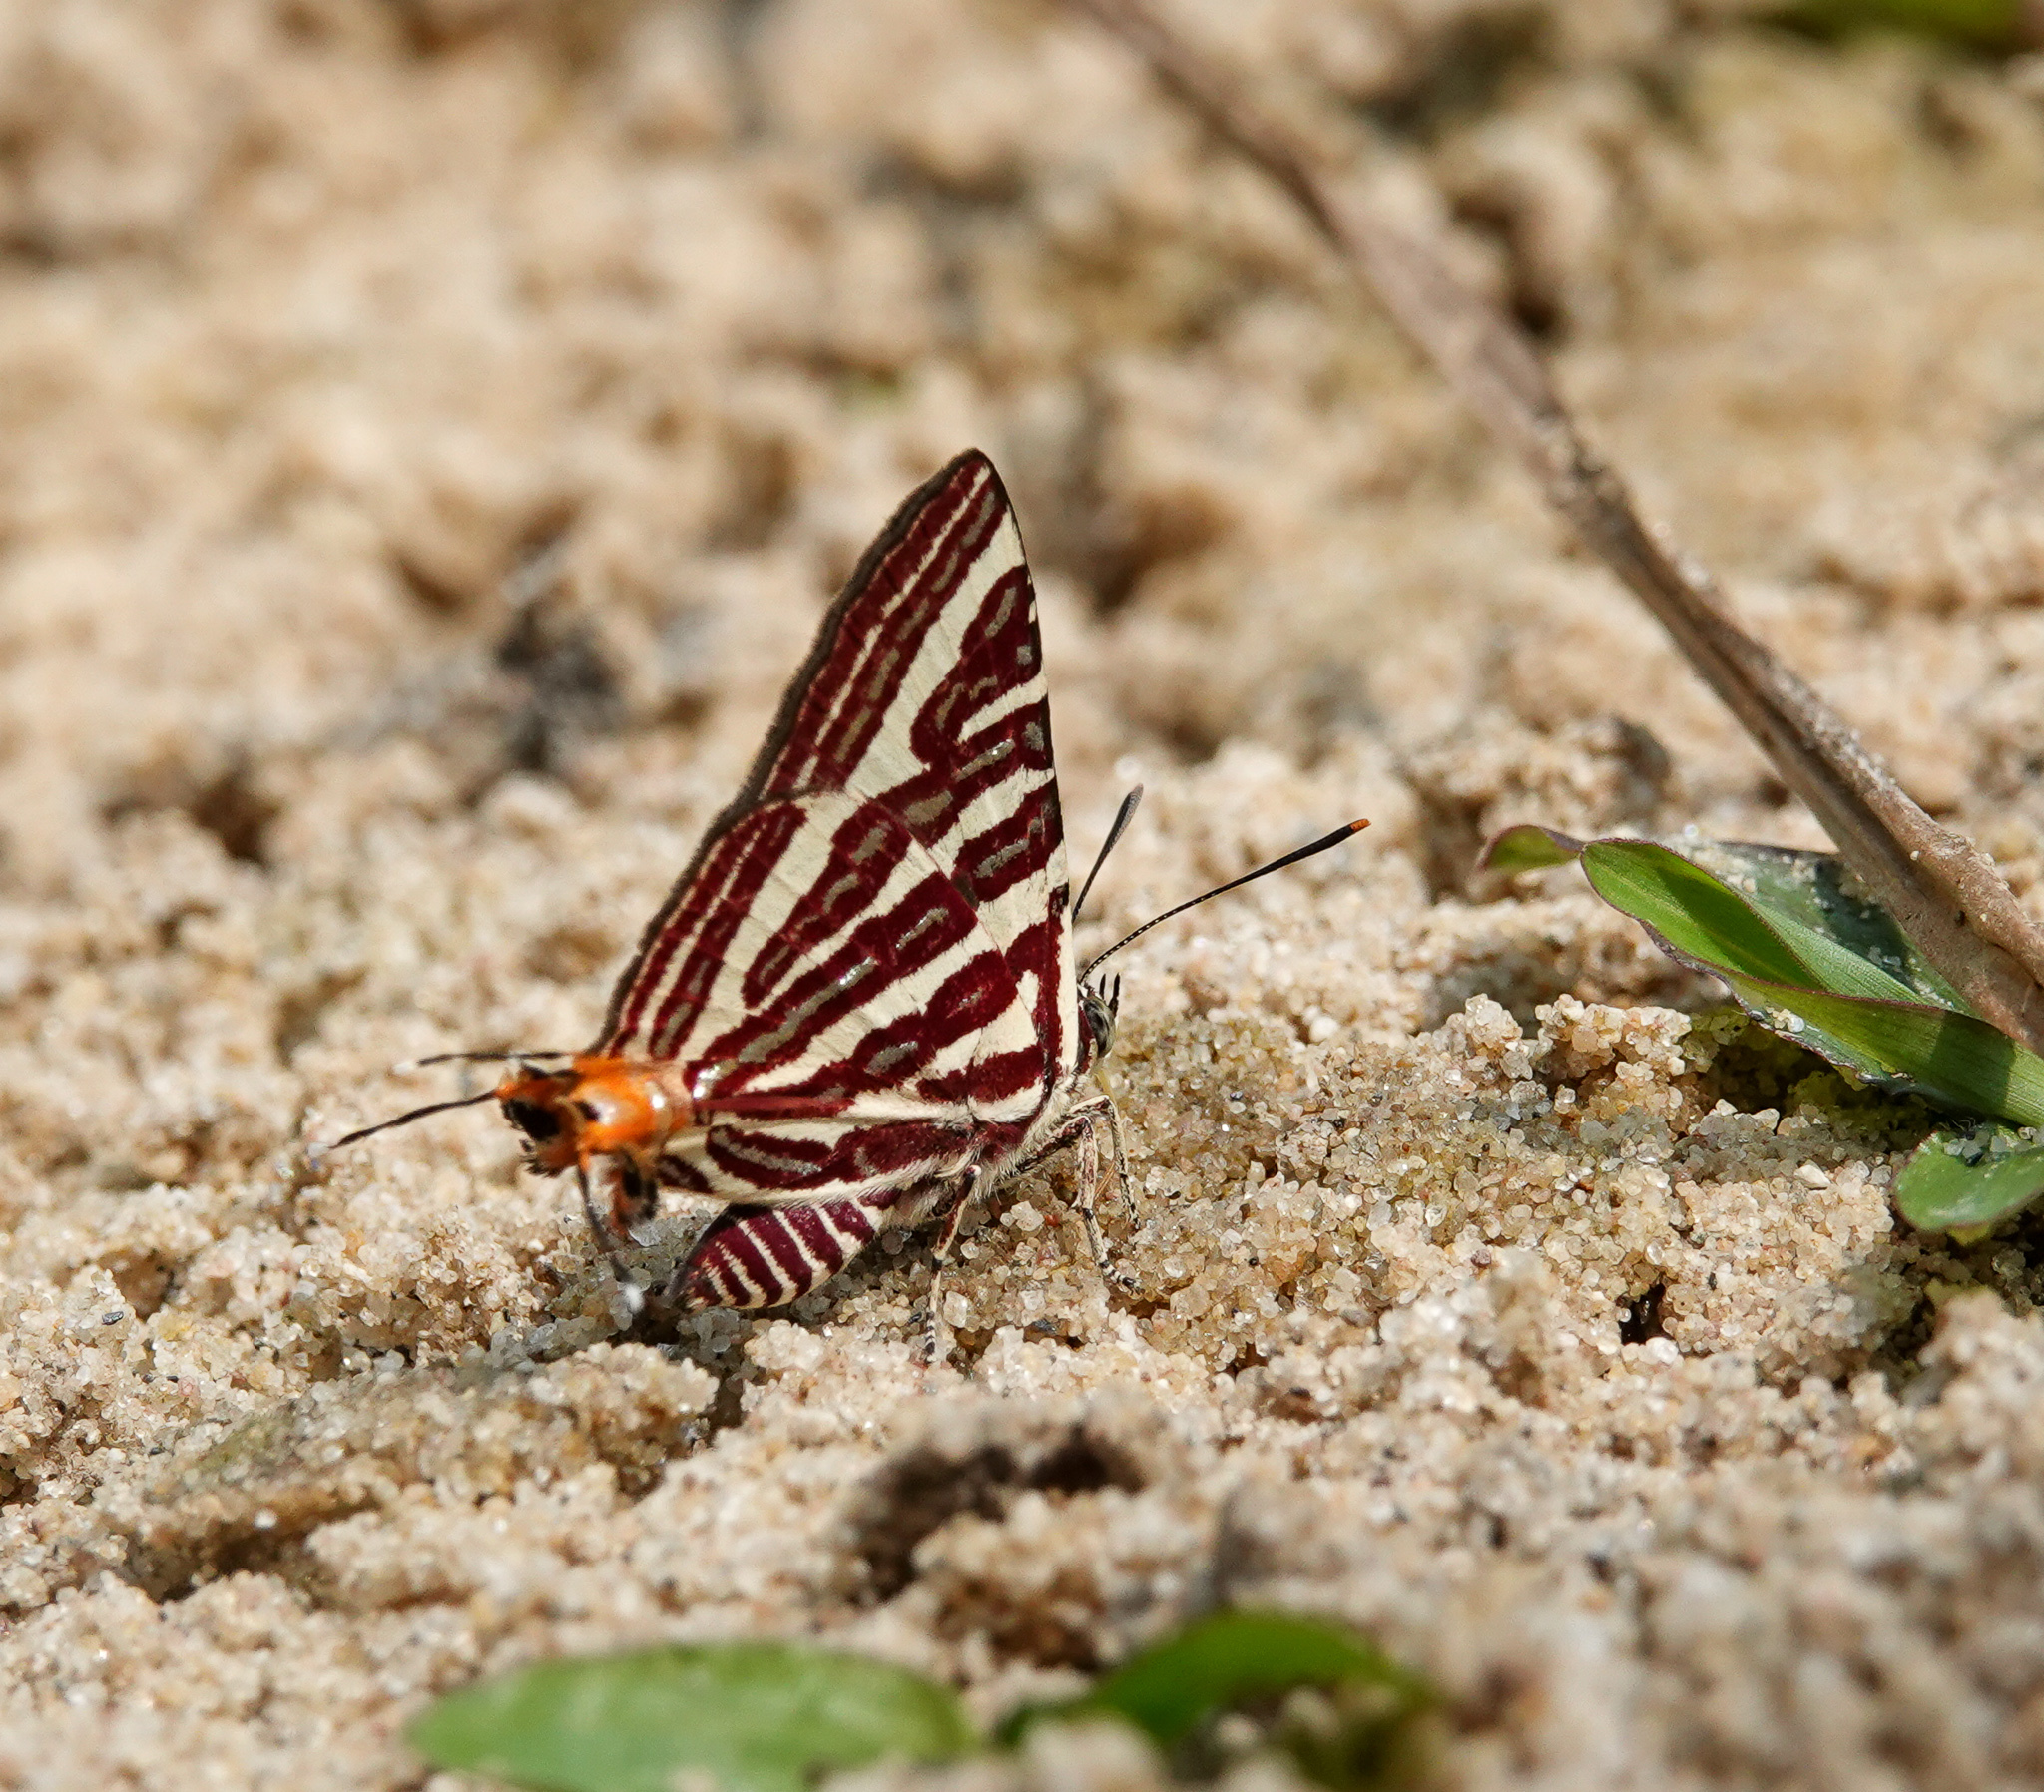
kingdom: Animalia
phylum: Arthropoda
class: Insecta
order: Lepidoptera
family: Lycaenidae
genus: Cigaritis
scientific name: Cigaritis lohita
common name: Long-banded silverline
